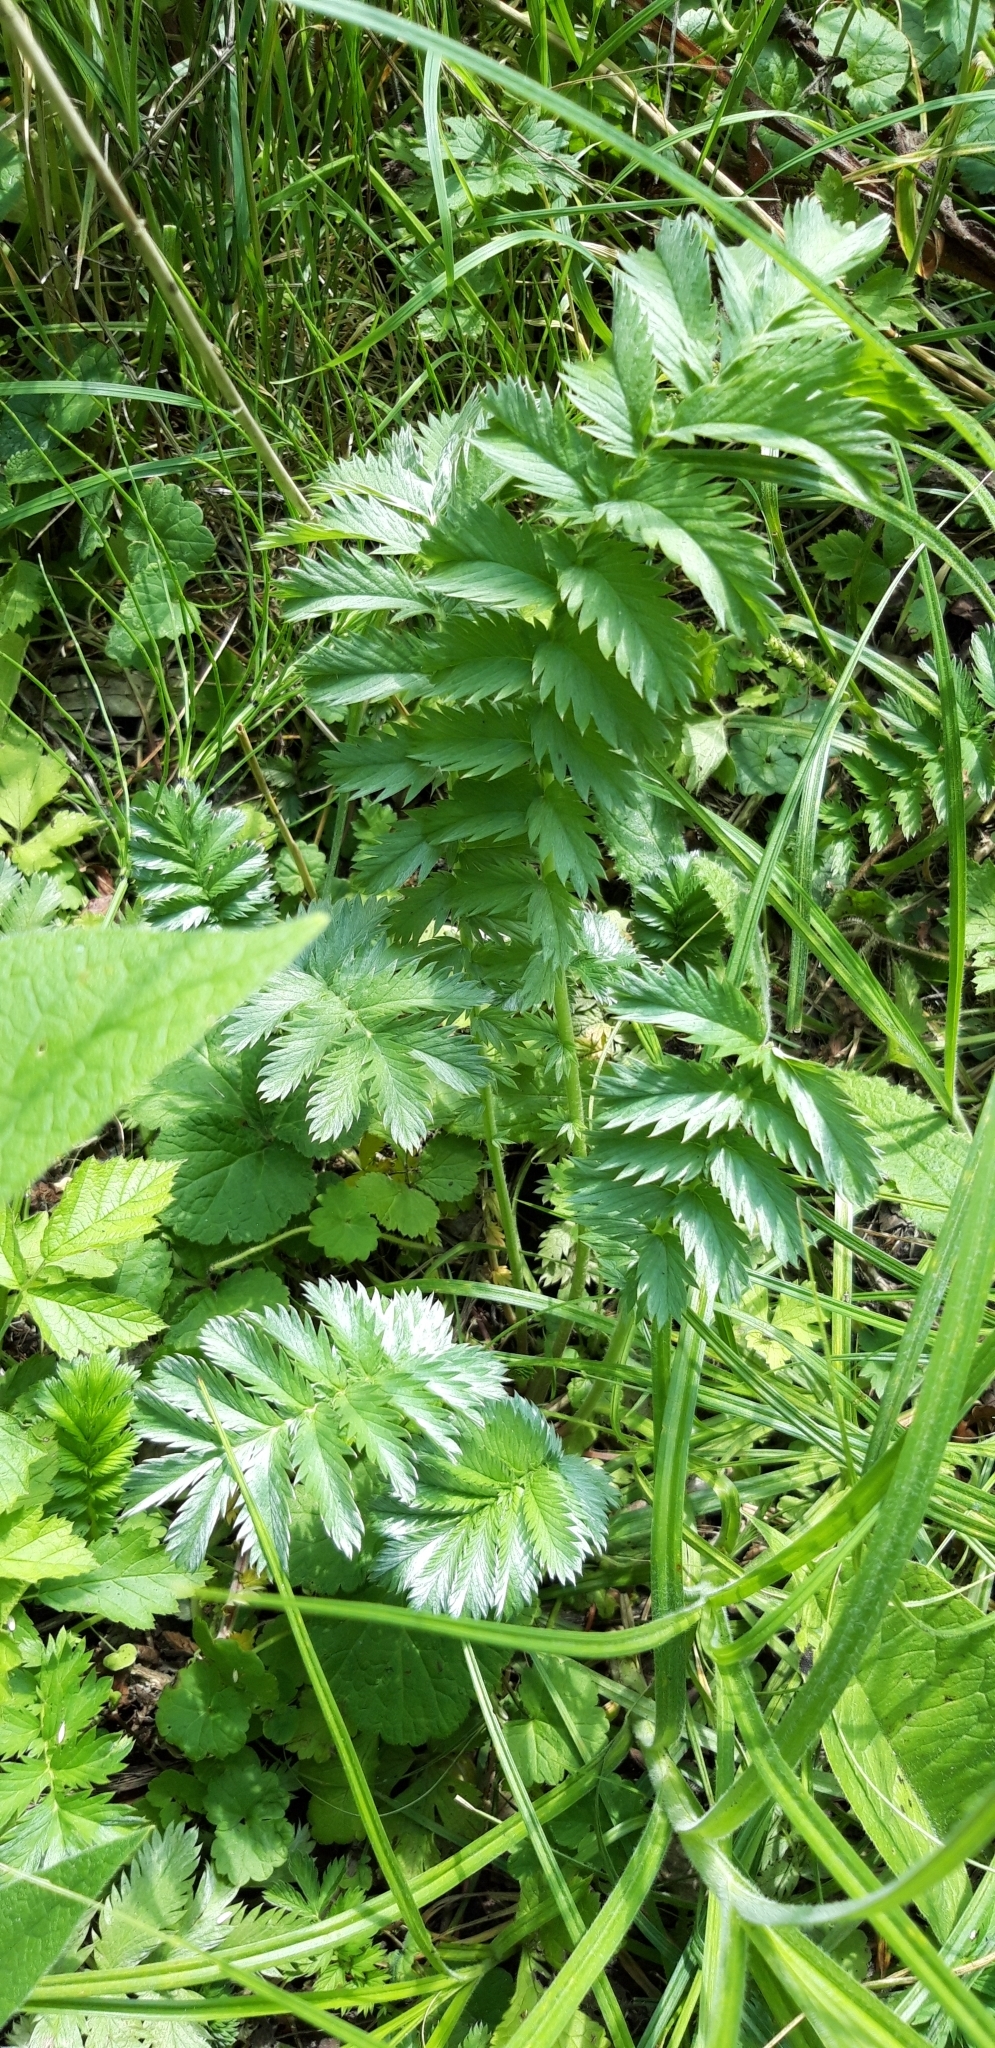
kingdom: Plantae
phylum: Tracheophyta
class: Magnoliopsida
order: Rosales
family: Rosaceae
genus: Argentina
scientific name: Argentina anserina
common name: Common silverweed
